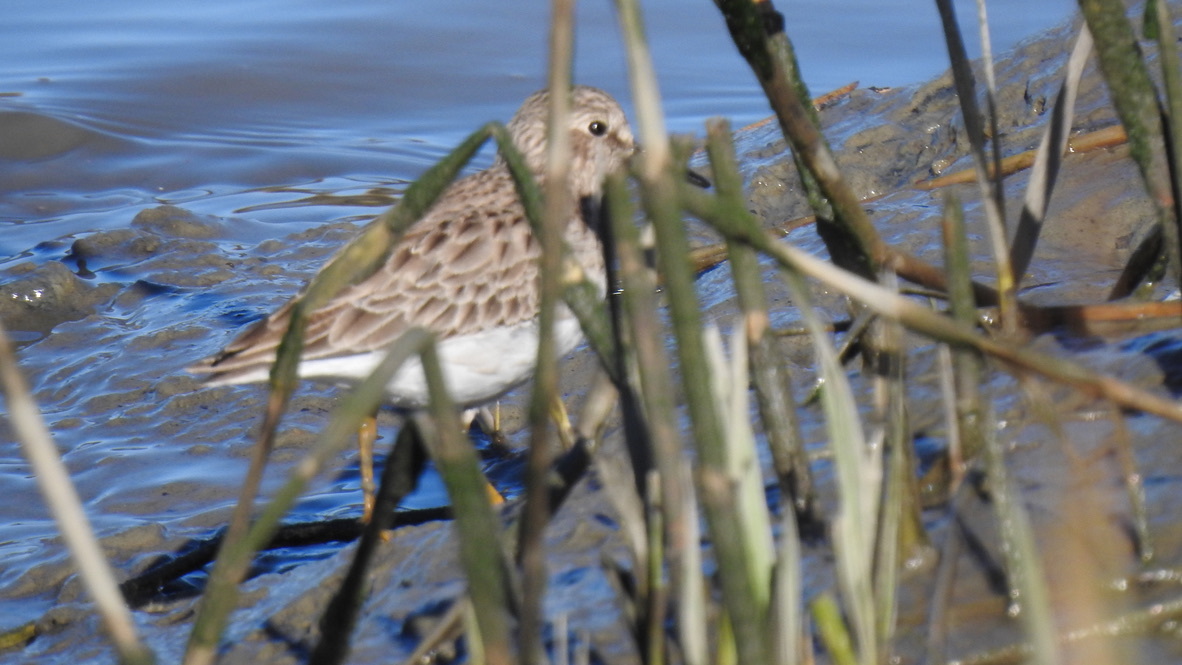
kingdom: Animalia
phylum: Chordata
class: Aves
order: Charadriiformes
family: Scolopacidae
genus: Calidris
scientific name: Calidris minutilla
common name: Least sandpiper
